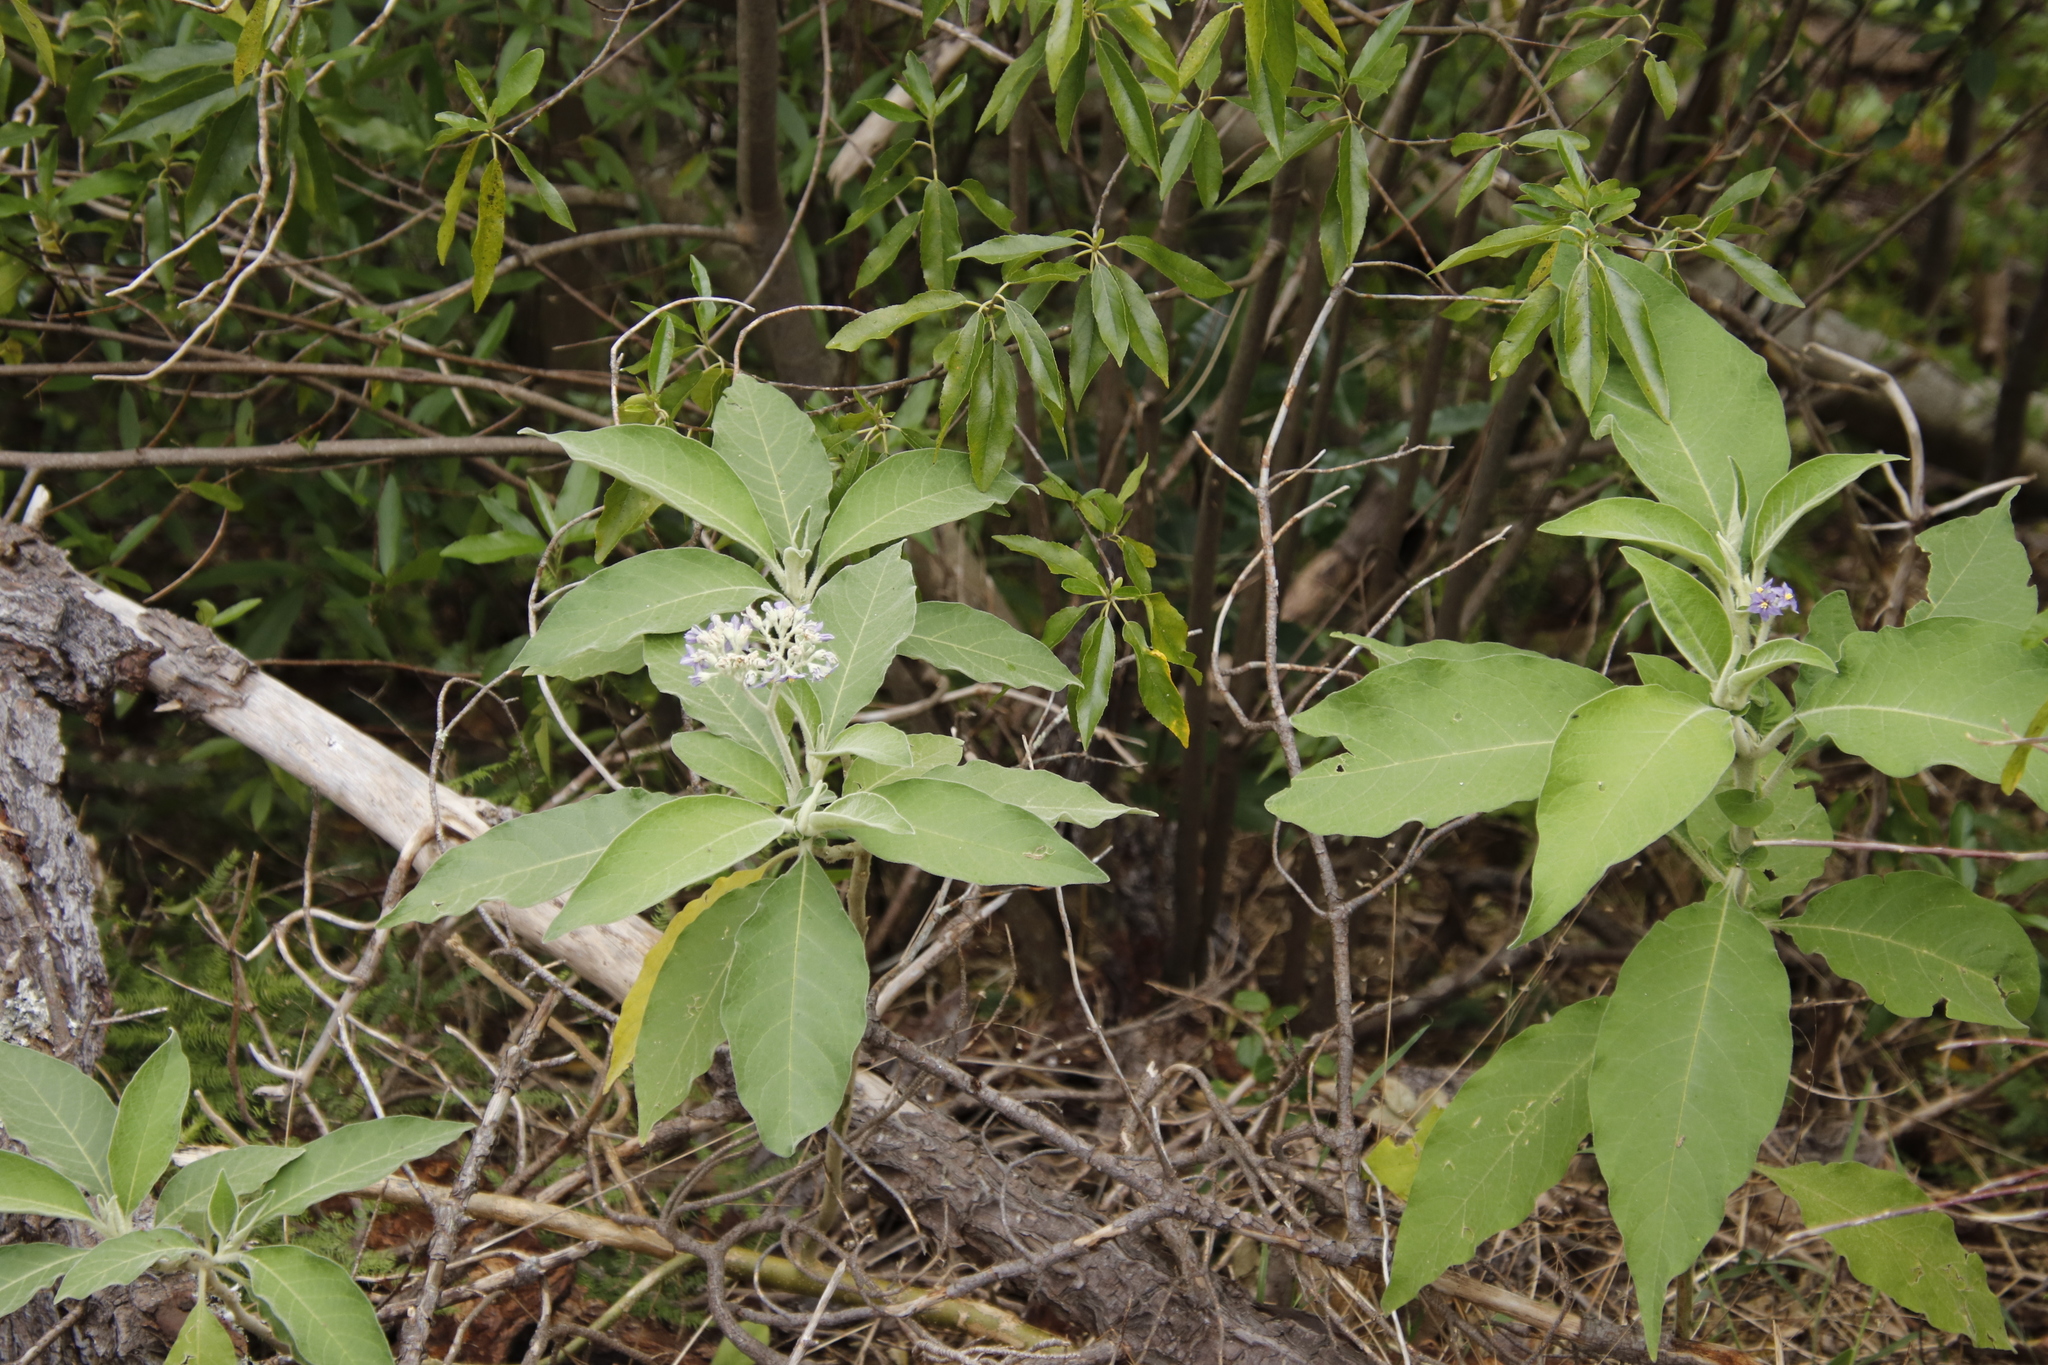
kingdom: Plantae
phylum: Tracheophyta
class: Magnoliopsida
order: Solanales
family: Solanaceae
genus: Solanum
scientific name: Solanum mauritianum
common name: Earleaf nightshade
